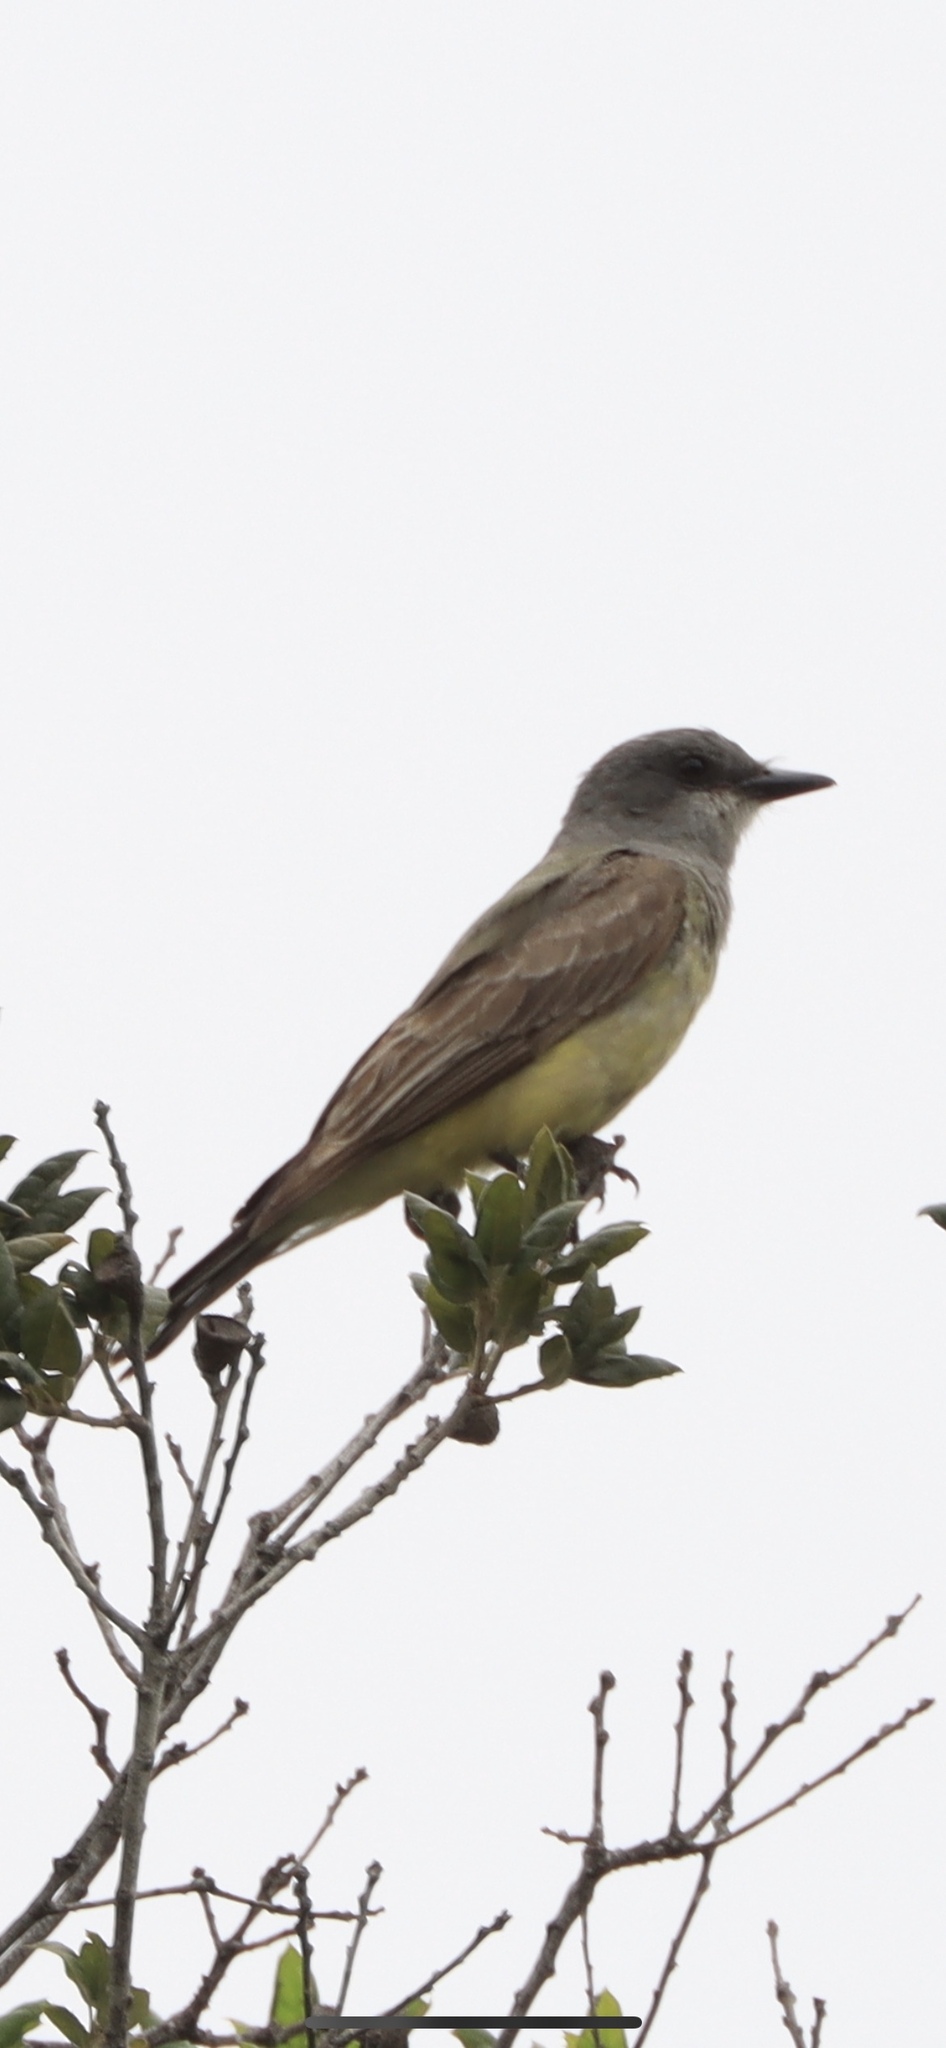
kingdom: Animalia
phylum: Chordata
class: Aves
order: Passeriformes
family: Tyrannidae
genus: Tyrannus
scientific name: Tyrannus vociferans
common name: Cassin's kingbird
